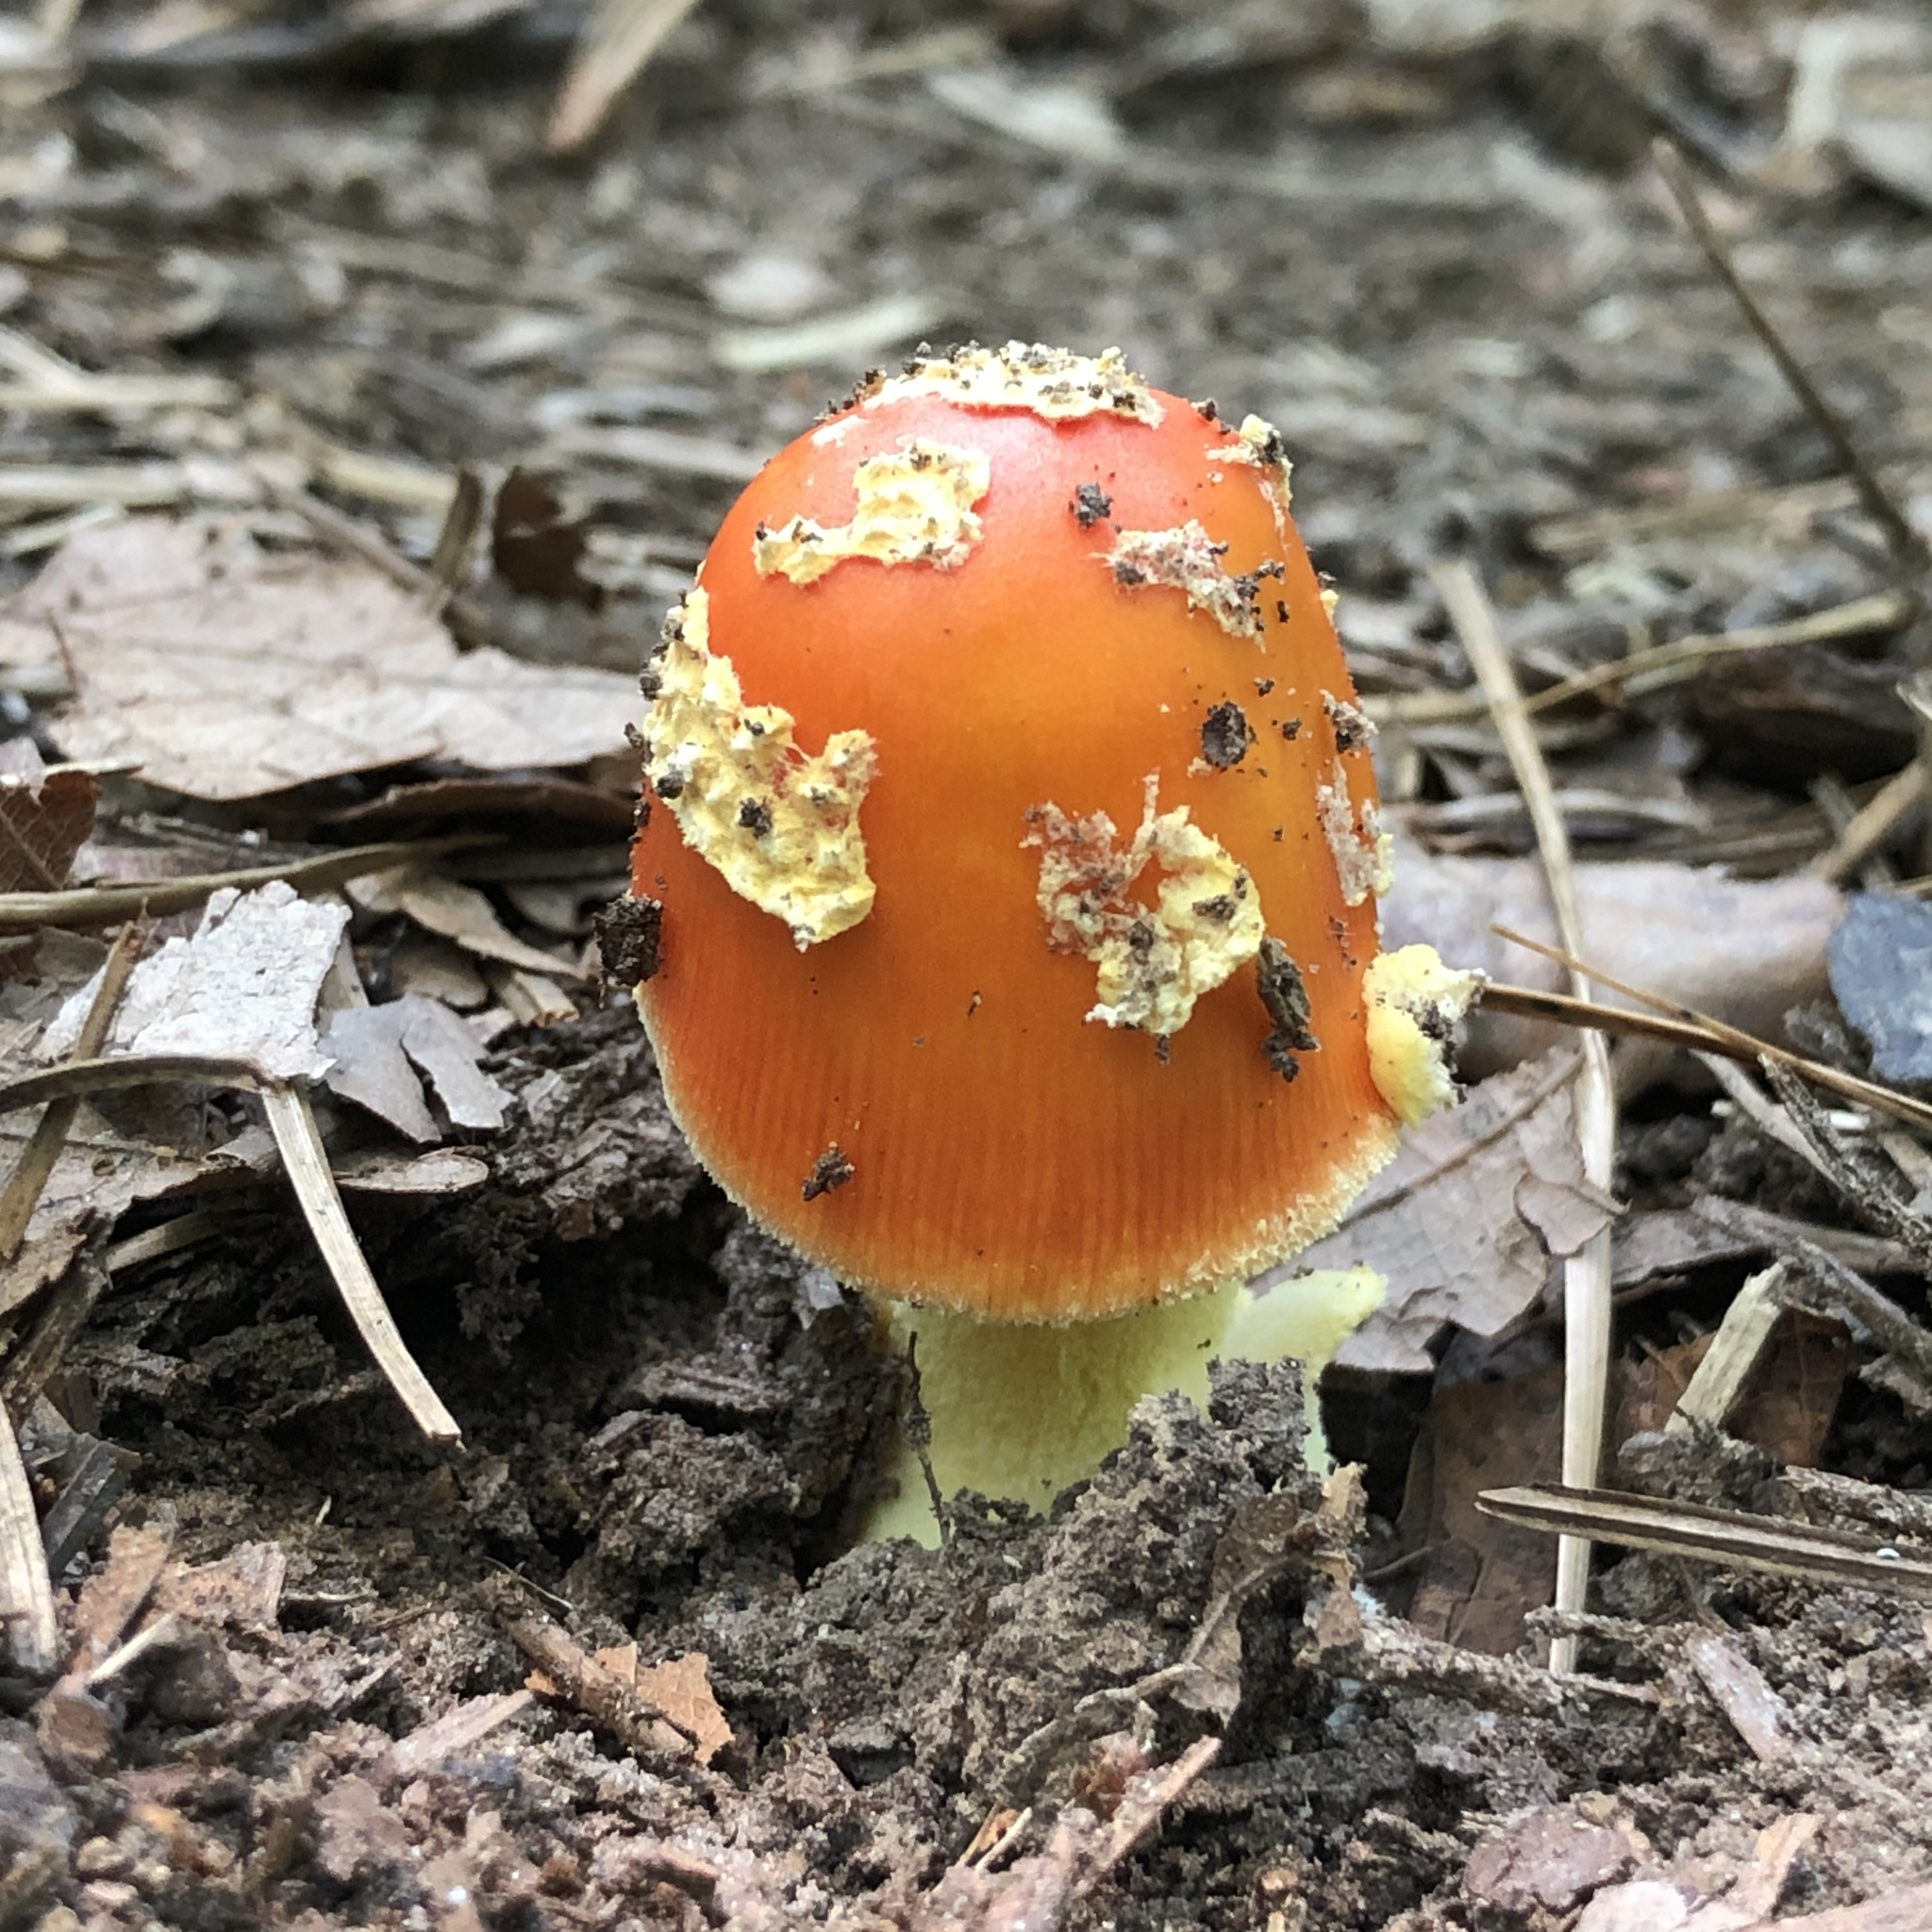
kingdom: Fungi
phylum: Basidiomycota
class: Agaricomycetes
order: Agaricales
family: Amanitaceae
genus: Amanita
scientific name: Amanita parcivolvata
